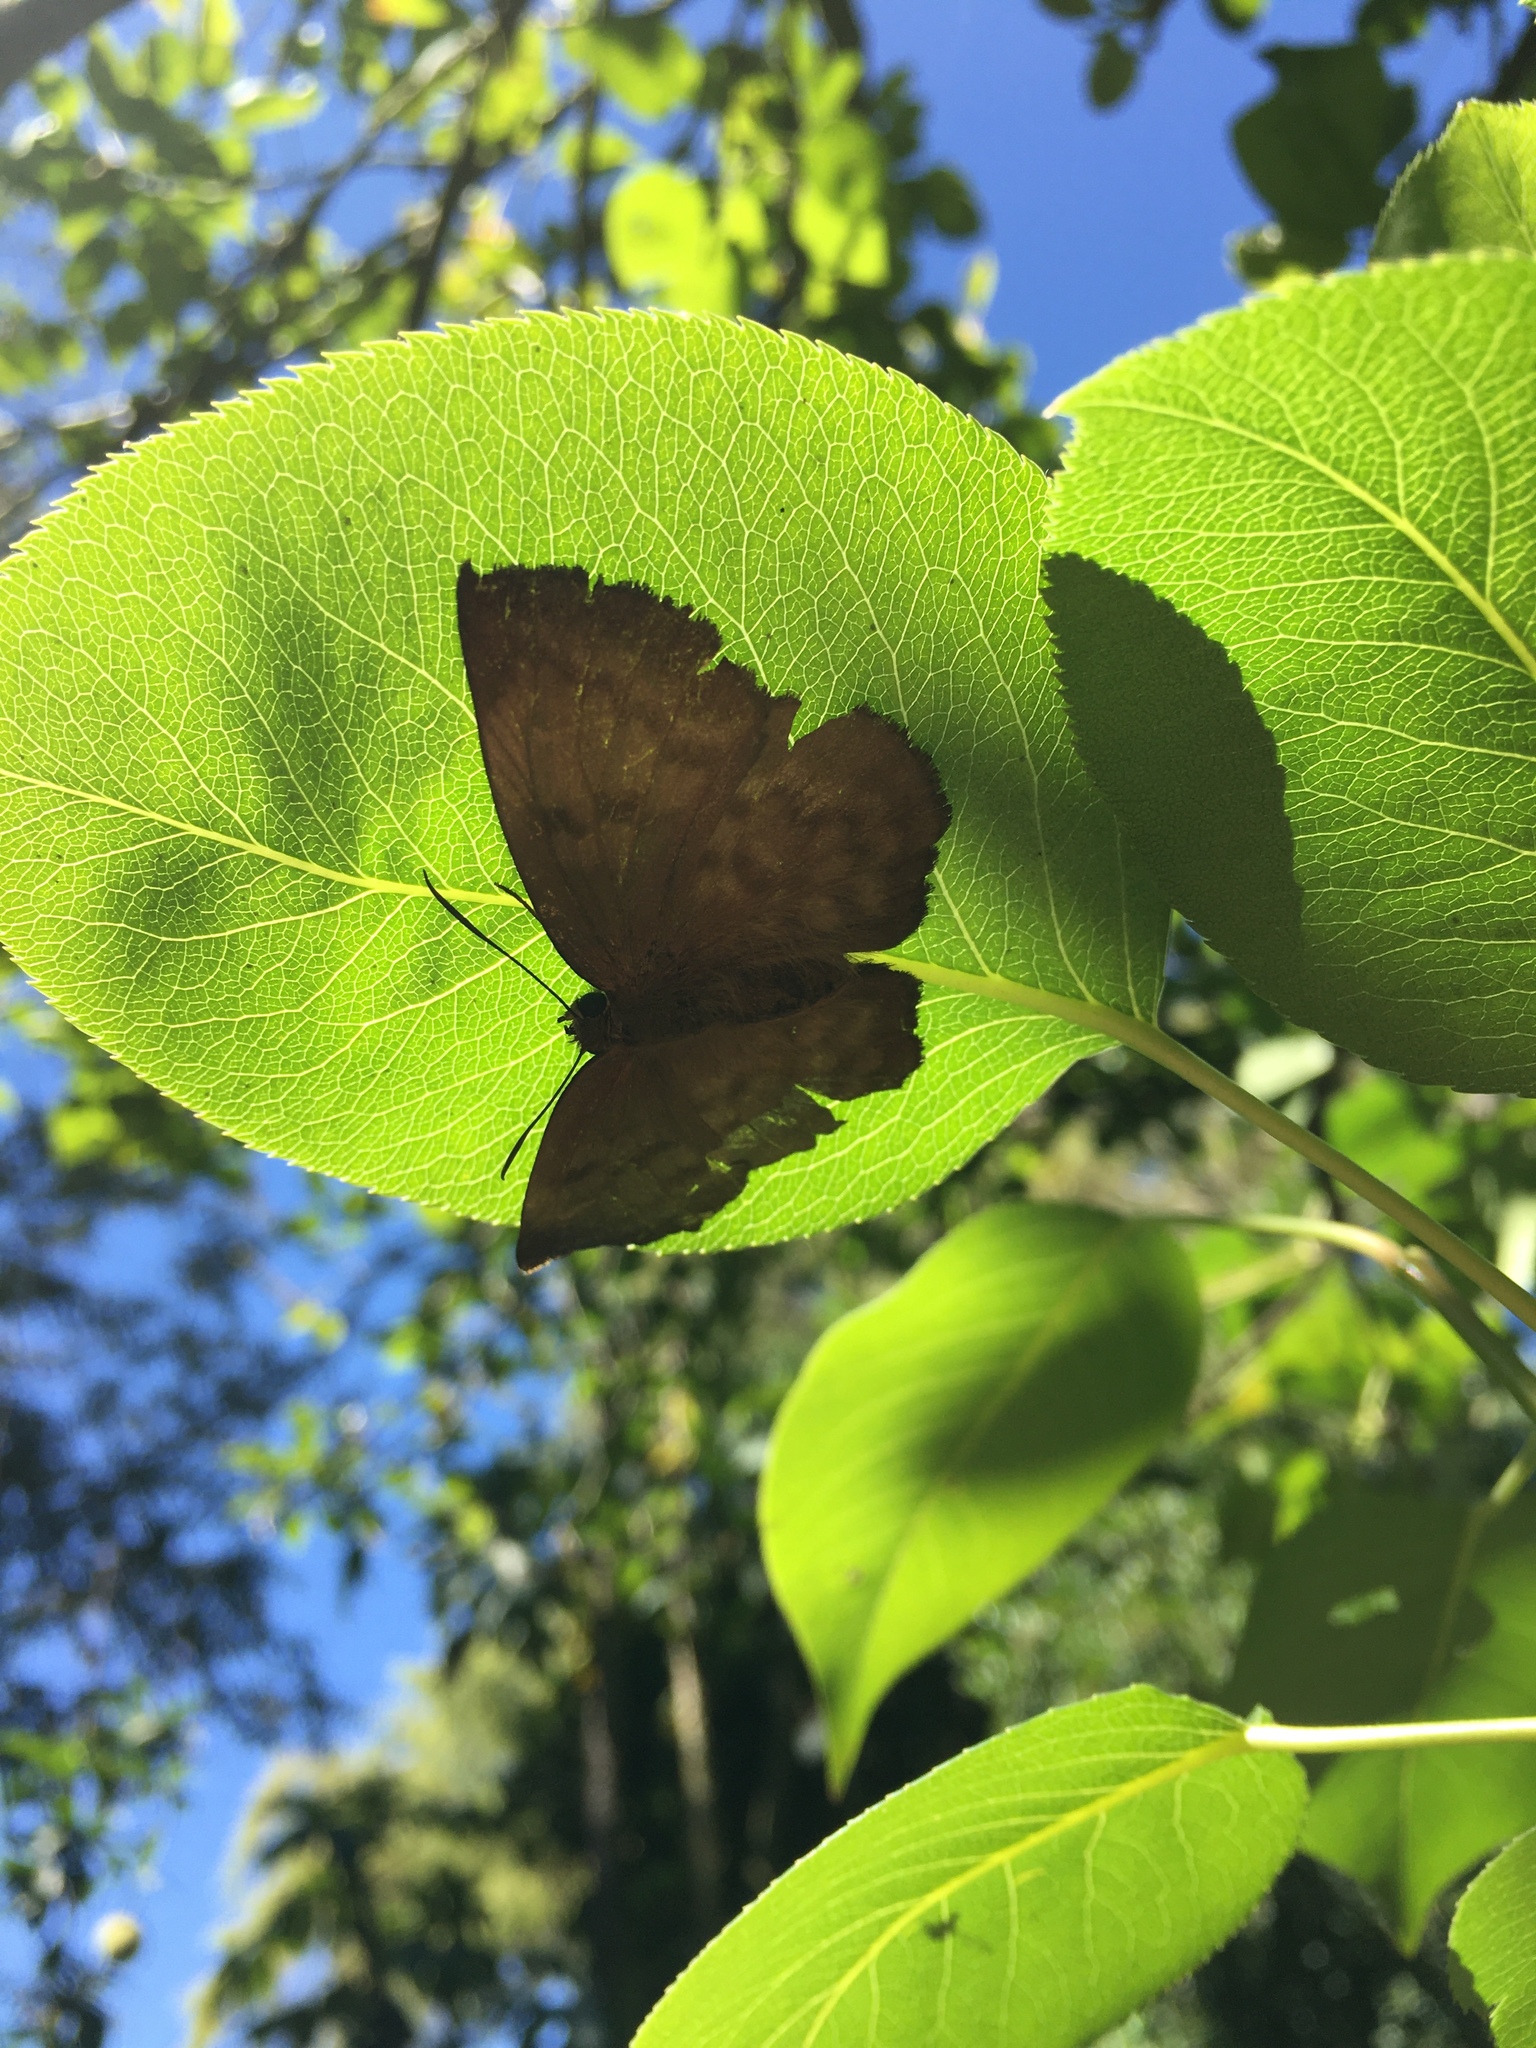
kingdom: Animalia
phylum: Arthropoda
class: Insecta
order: Lepidoptera
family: Hesperiidae
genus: Achlyodes
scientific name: Achlyodes pallida
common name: Pale sicklewing
